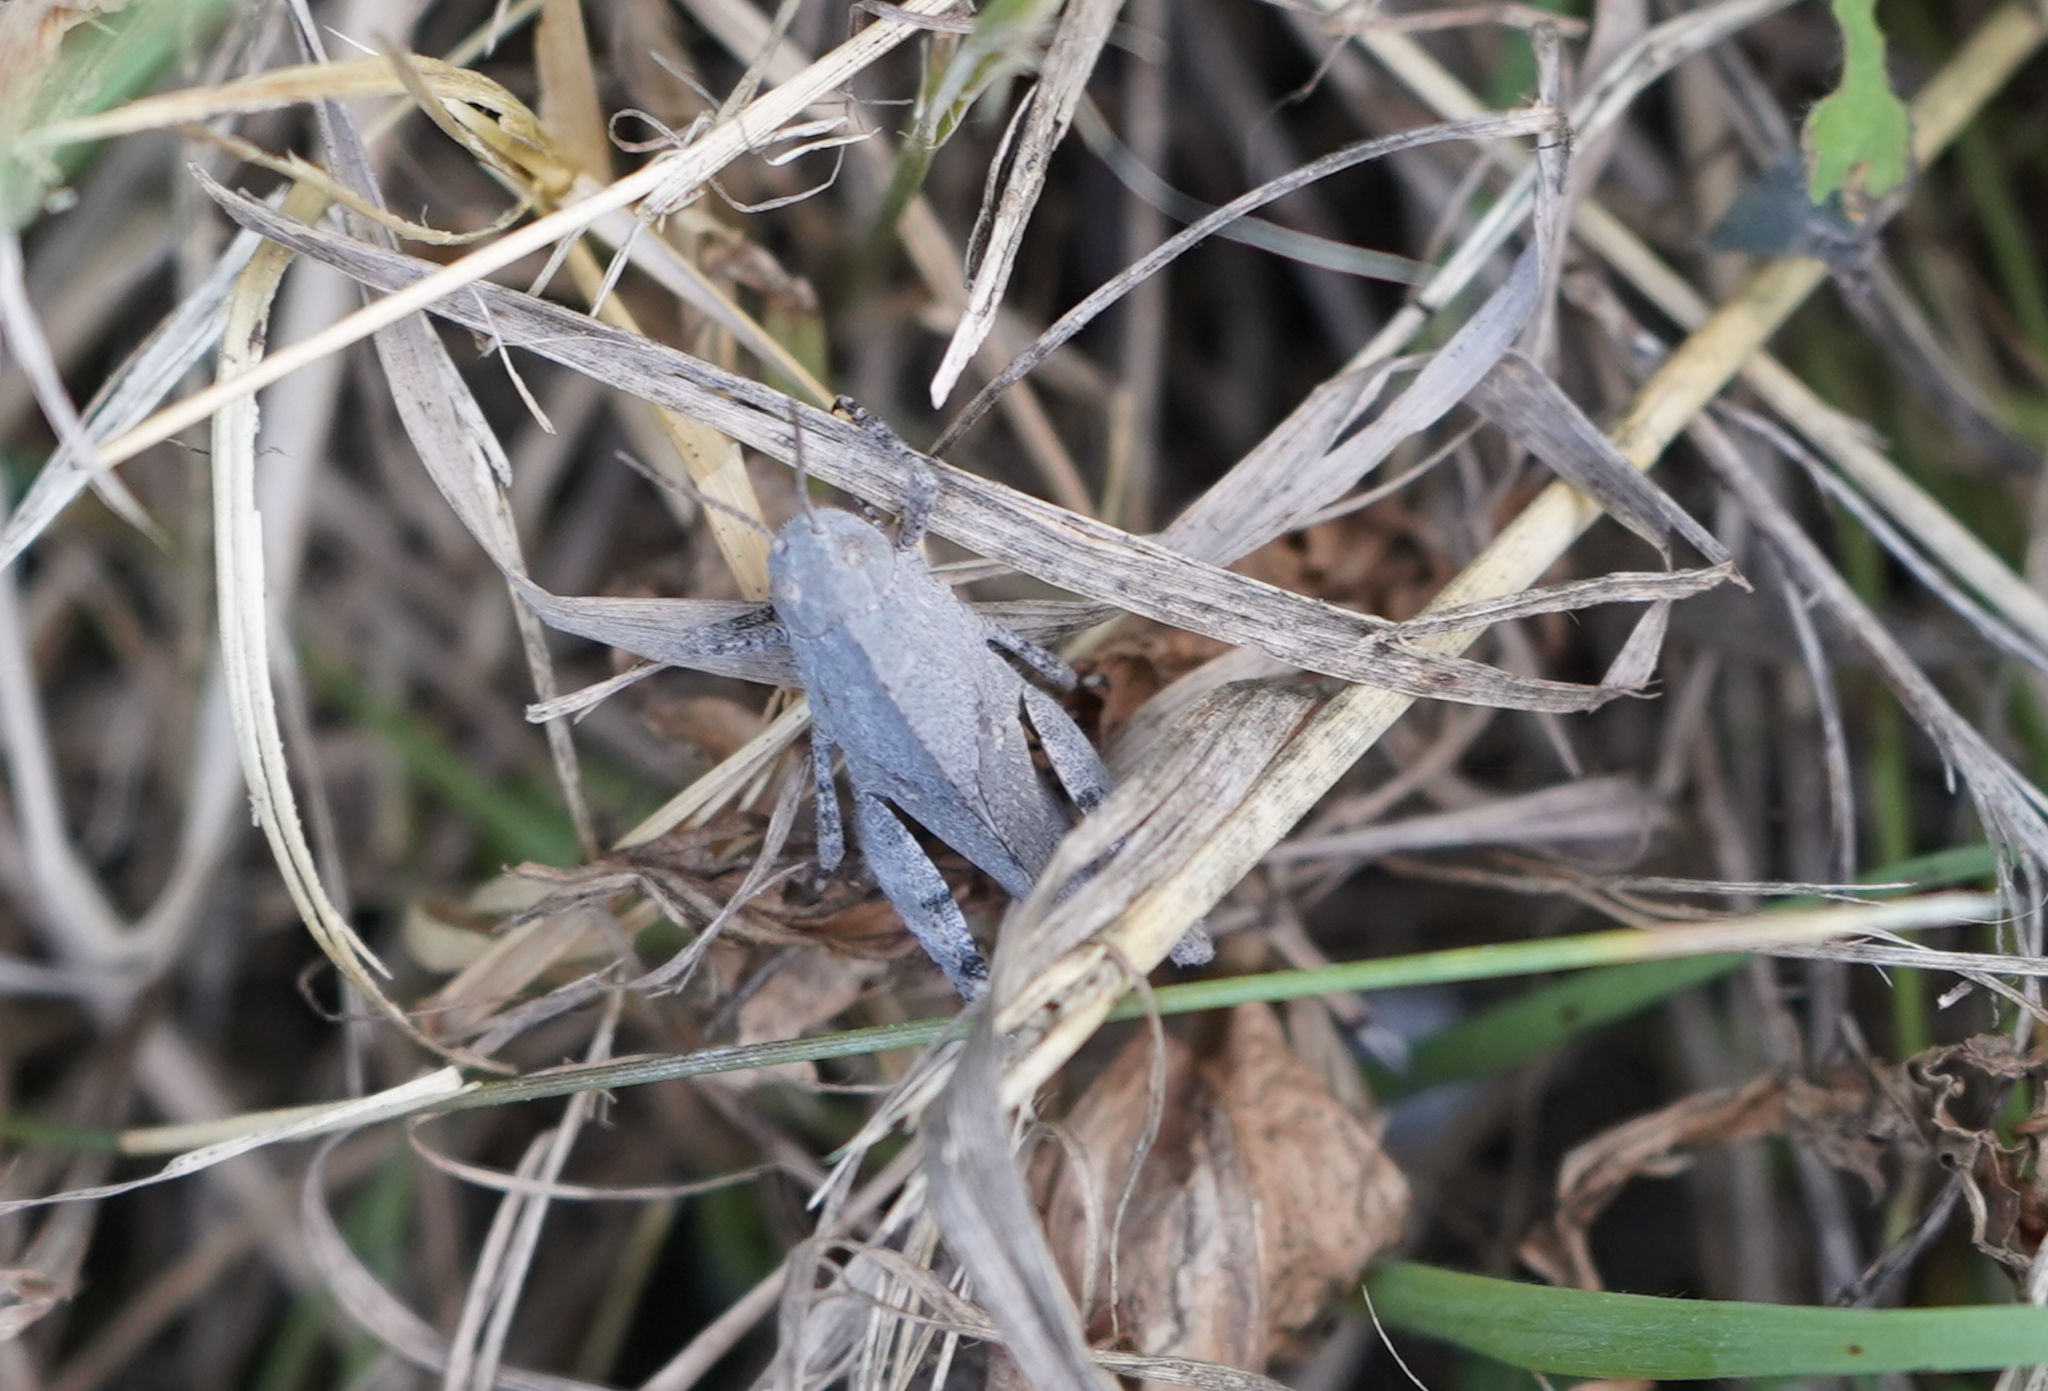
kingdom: Animalia
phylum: Arthropoda
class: Insecta
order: Orthoptera
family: Acrididae
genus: Dissosteira
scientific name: Dissosteira carolina
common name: Carolina grasshopper
